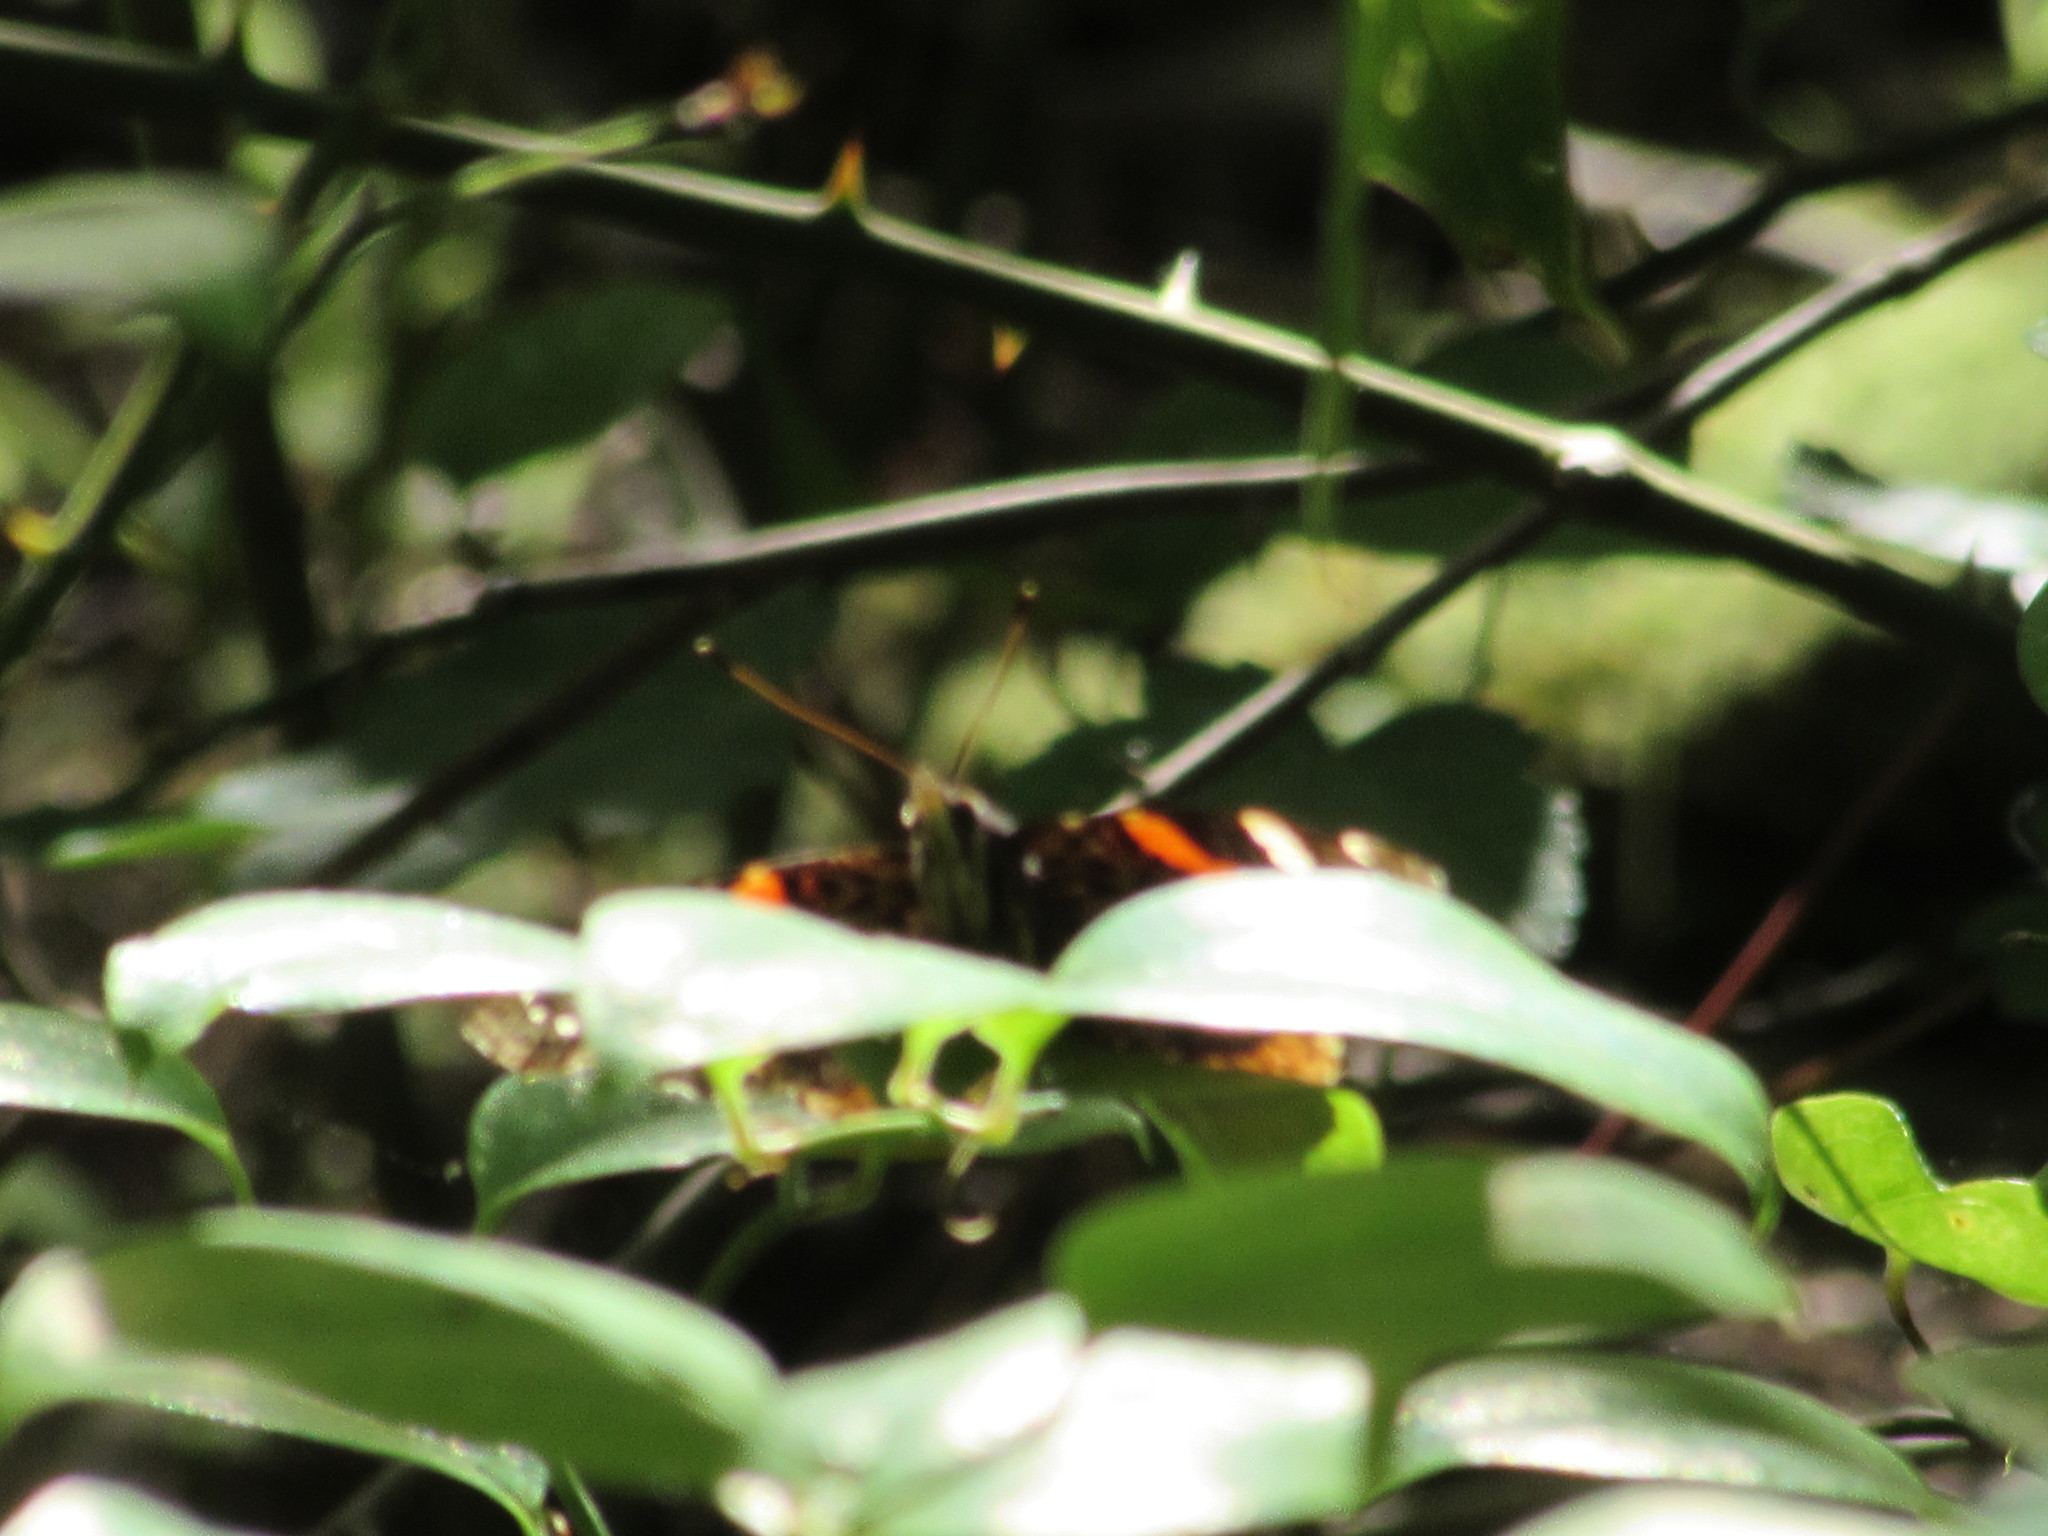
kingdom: Animalia
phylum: Arthropoda
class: Insecta
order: Lepidoptera
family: Nymphalidae
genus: Vanessa
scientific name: Vanessa atalanta
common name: Red admiral
